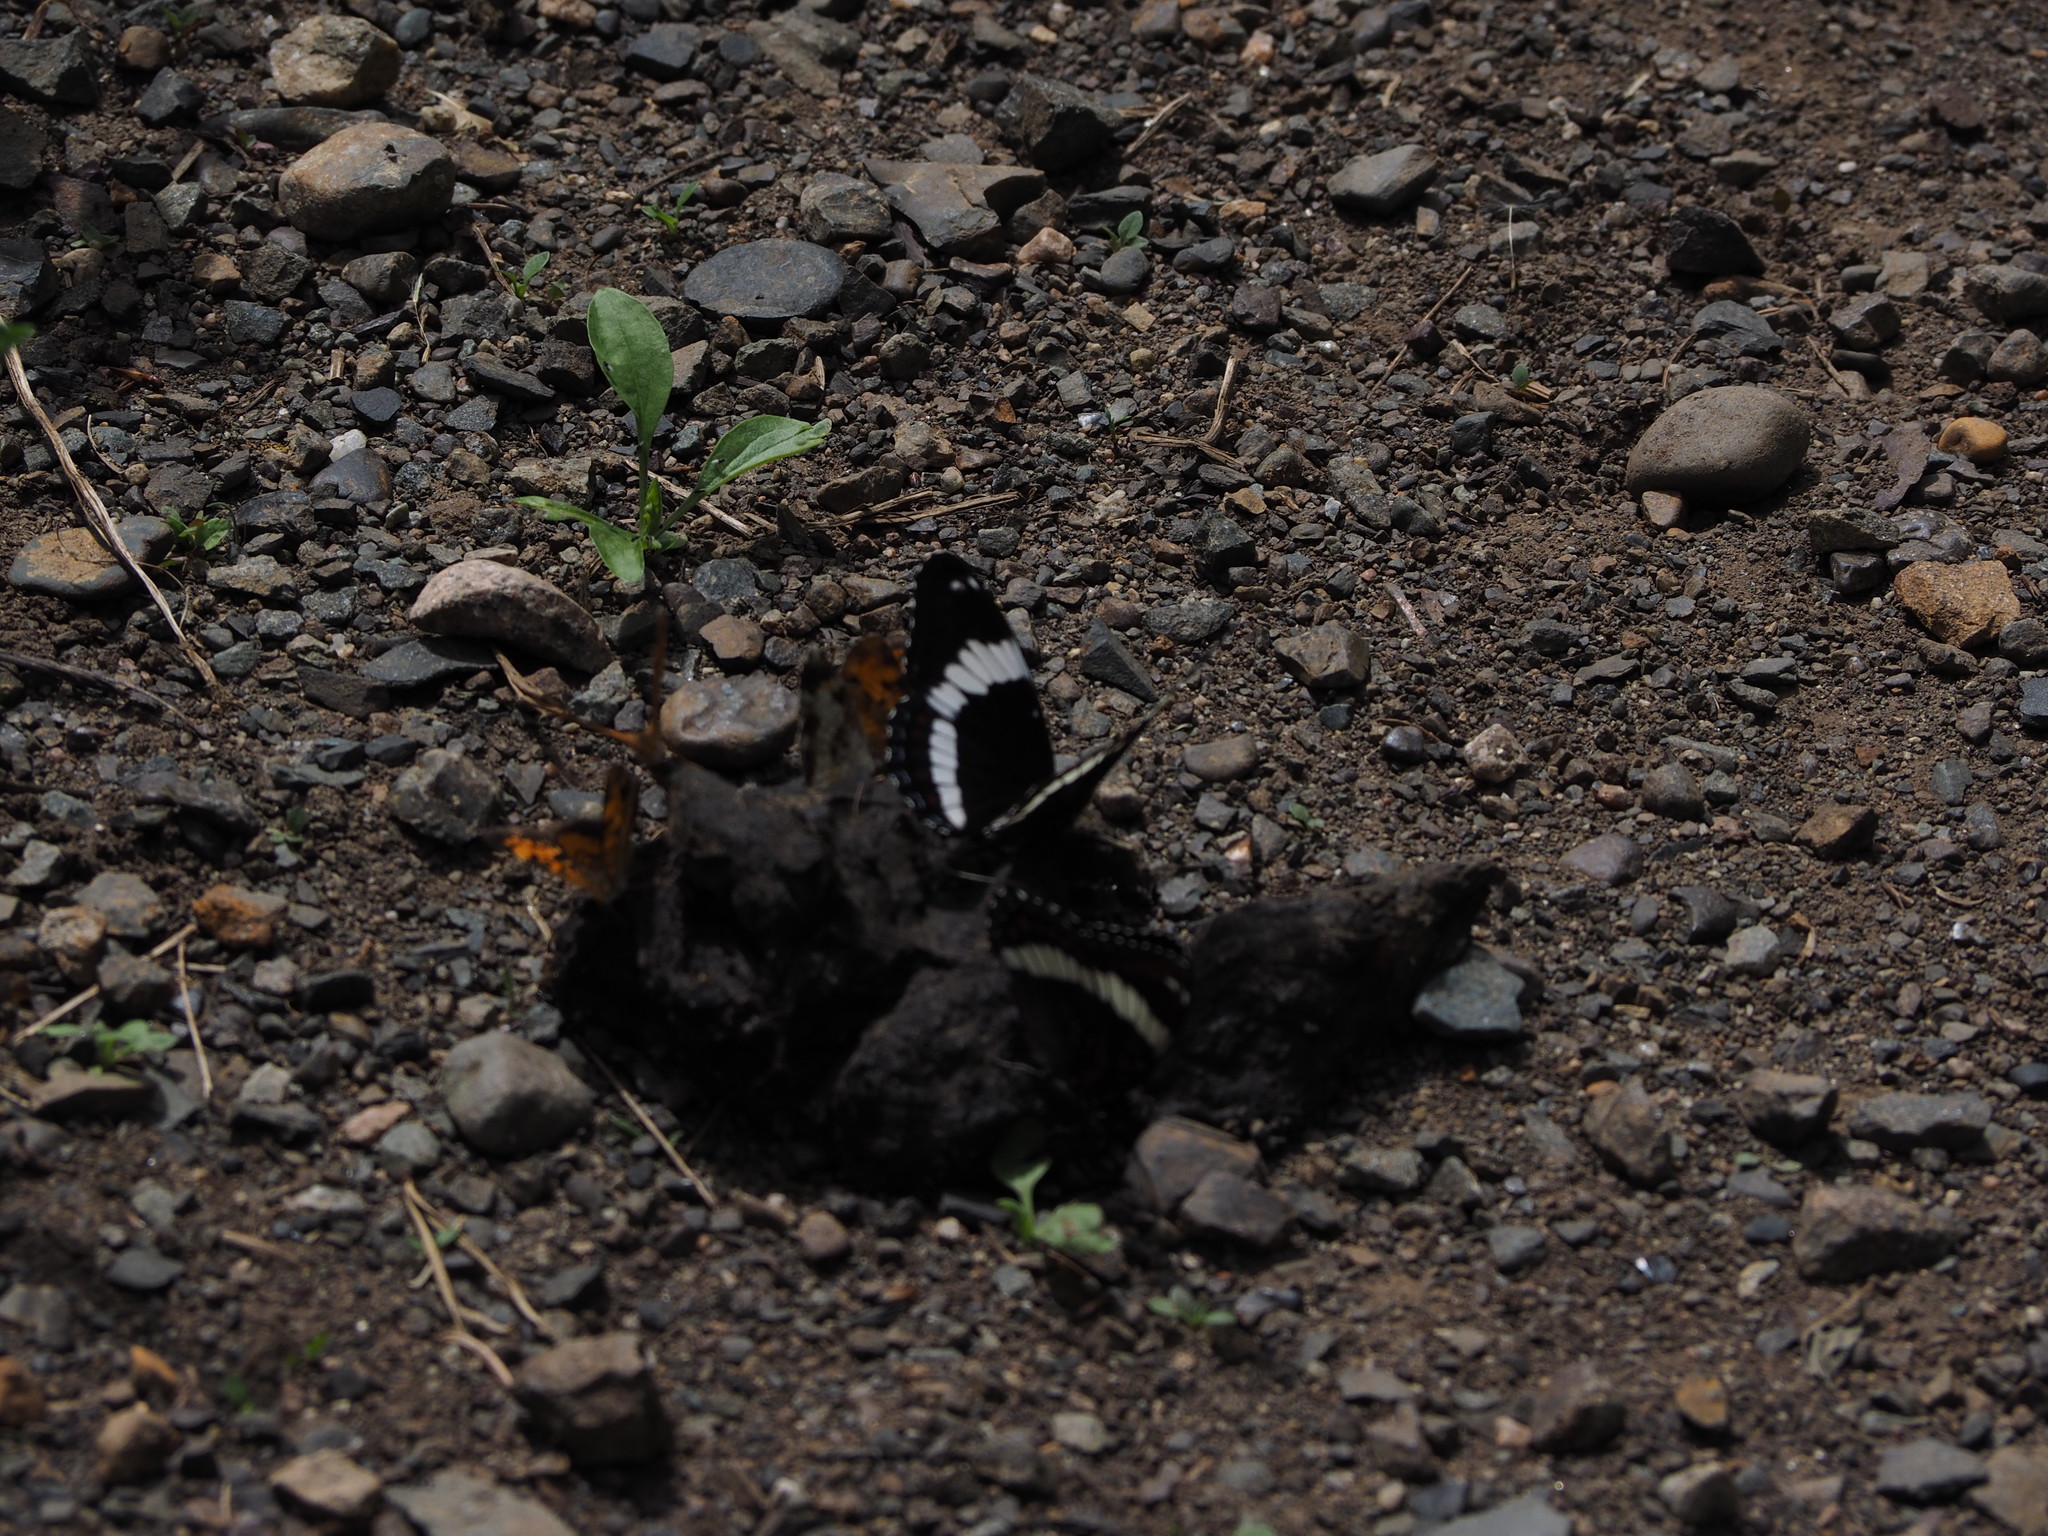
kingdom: Animalia
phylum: Arthropoda
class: Insecta
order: Lepidoptera
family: Nymphalidae
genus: Limenitis
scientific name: Limenitis arthemis
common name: Red-spotted admiral
